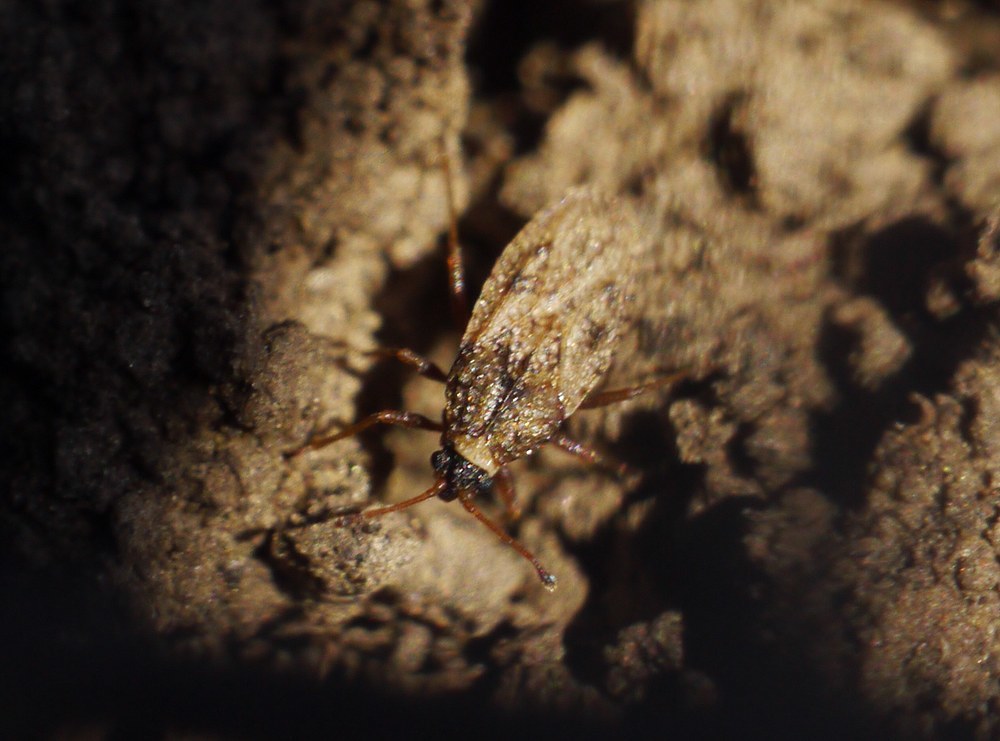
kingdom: Animalia
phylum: Arthropoda
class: Insecta
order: Hemiptera
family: Tingidae
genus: Dictyla
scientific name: Dictyla platyoma
